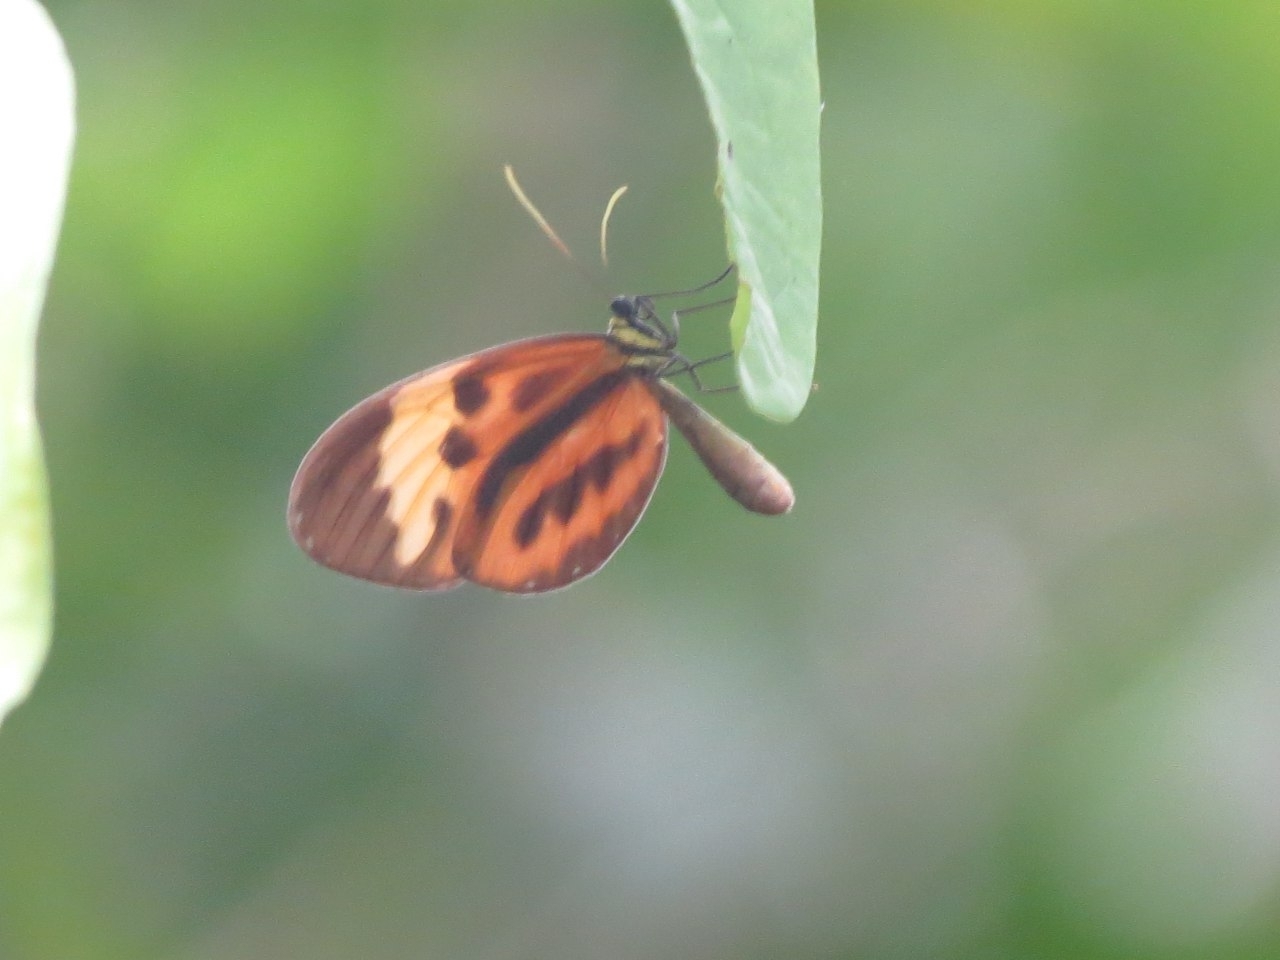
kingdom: Animalia
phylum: Arthropoda
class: Insecta
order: Lepidoptera
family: Nymphalidae
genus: Ceratinia
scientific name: Ceratinia tutia
